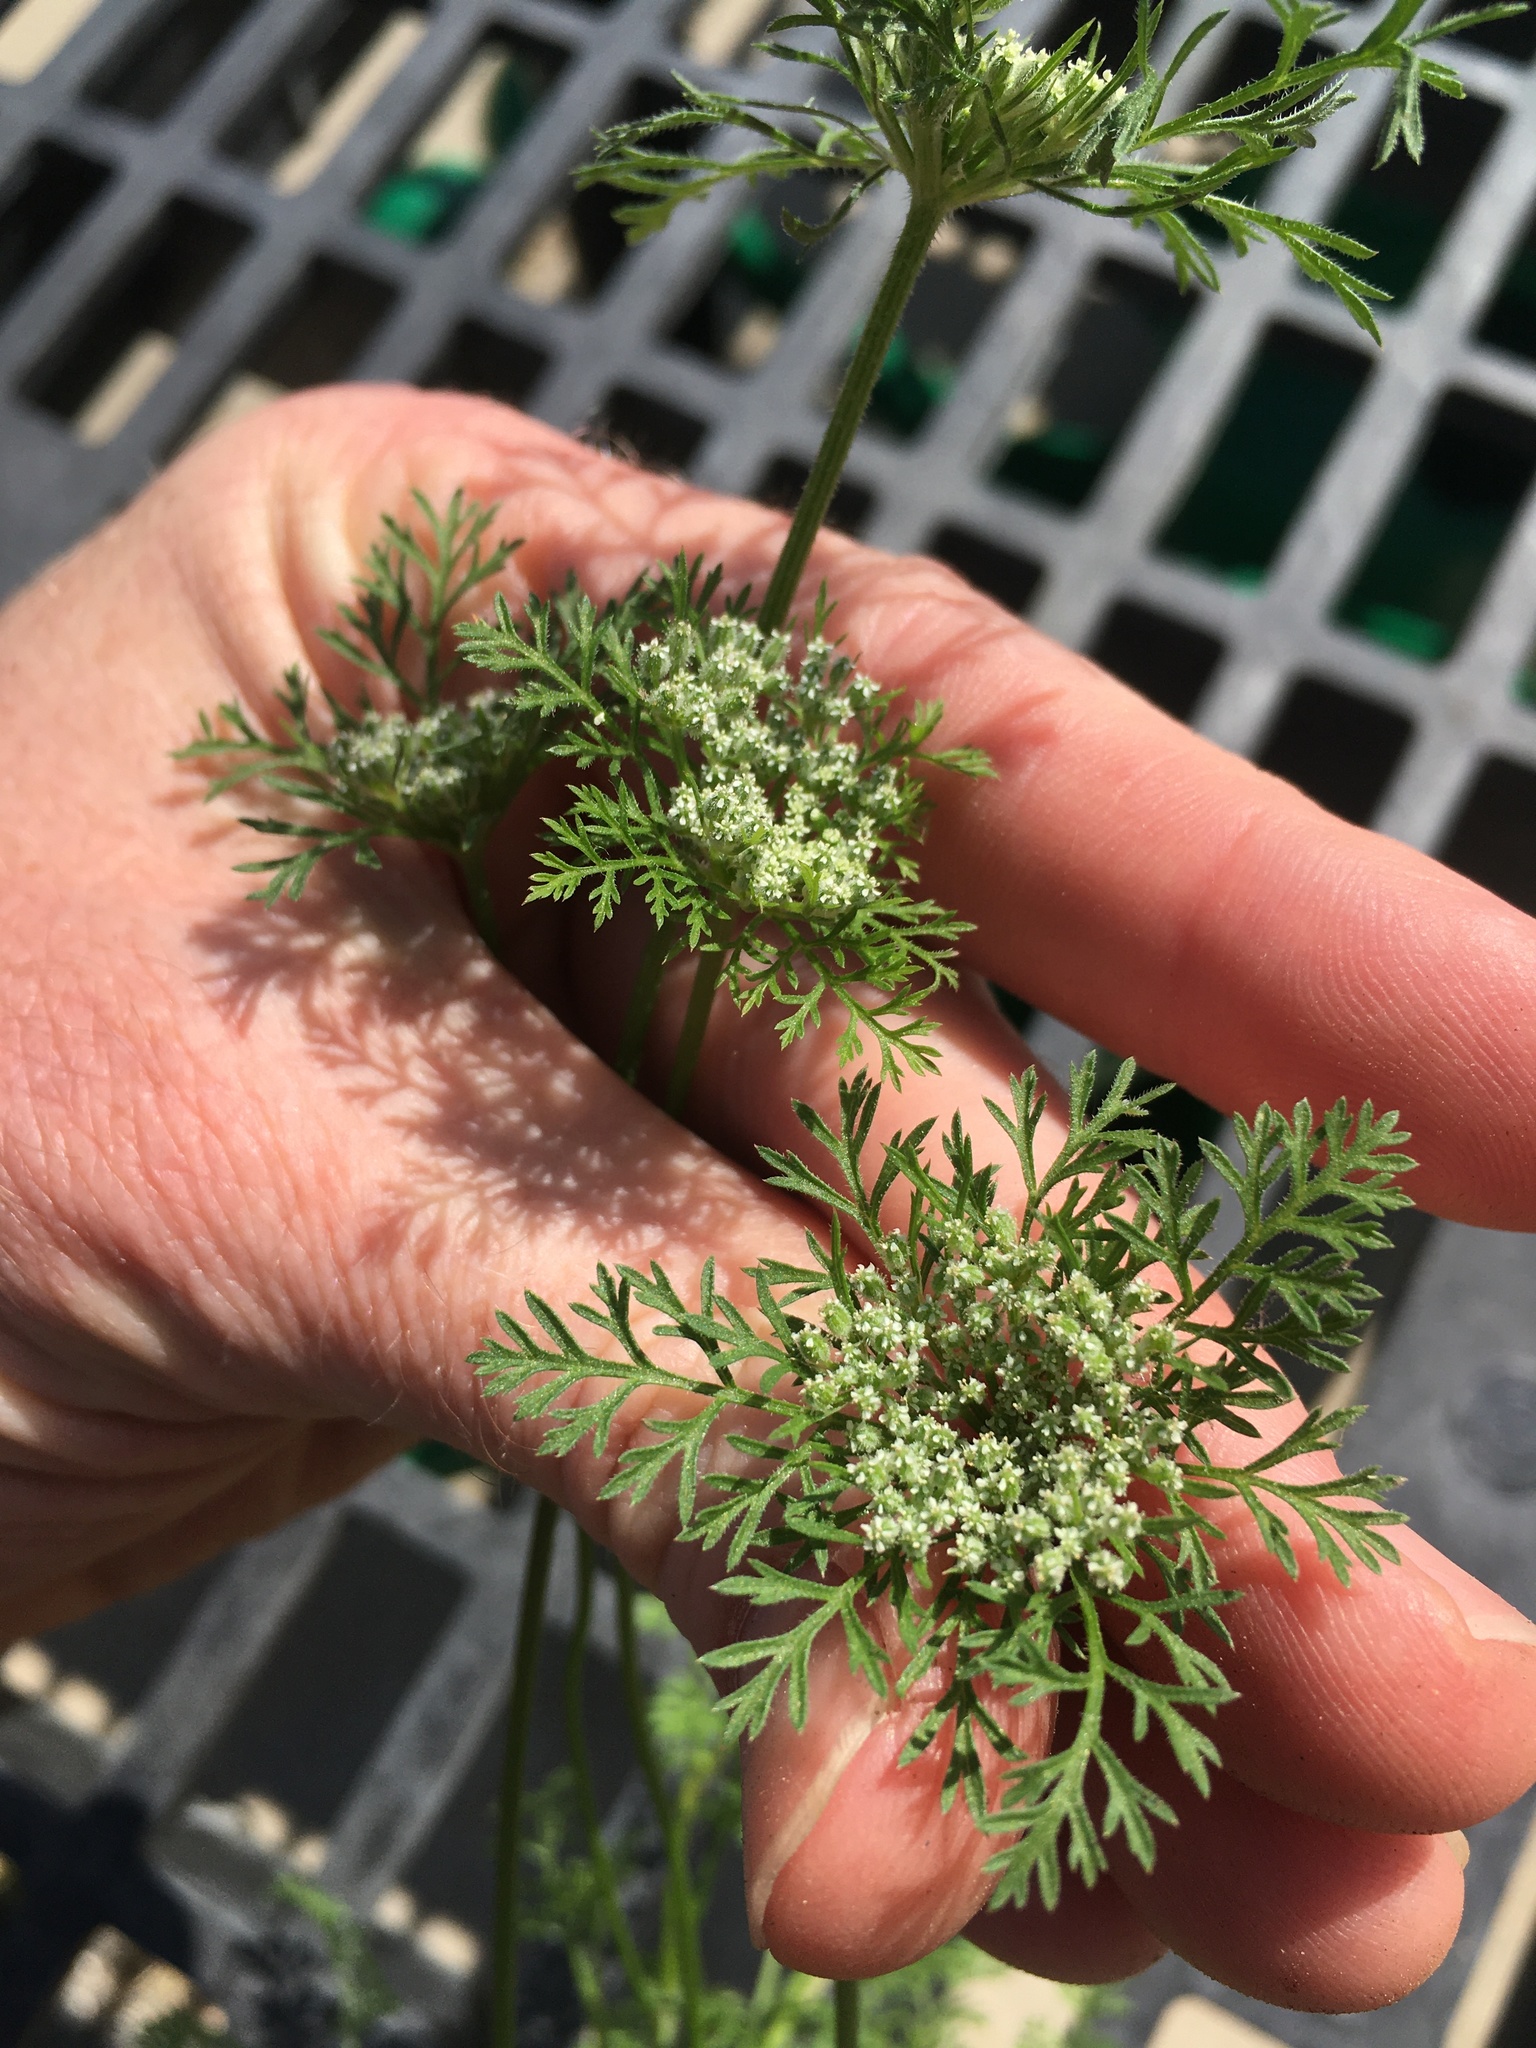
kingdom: Plantae
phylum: Tracheophyta
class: Magnoliopsida
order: Apiales
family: Apiaceae
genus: Daucus
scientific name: Daucus pusillus
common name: Southwest wild carrot
